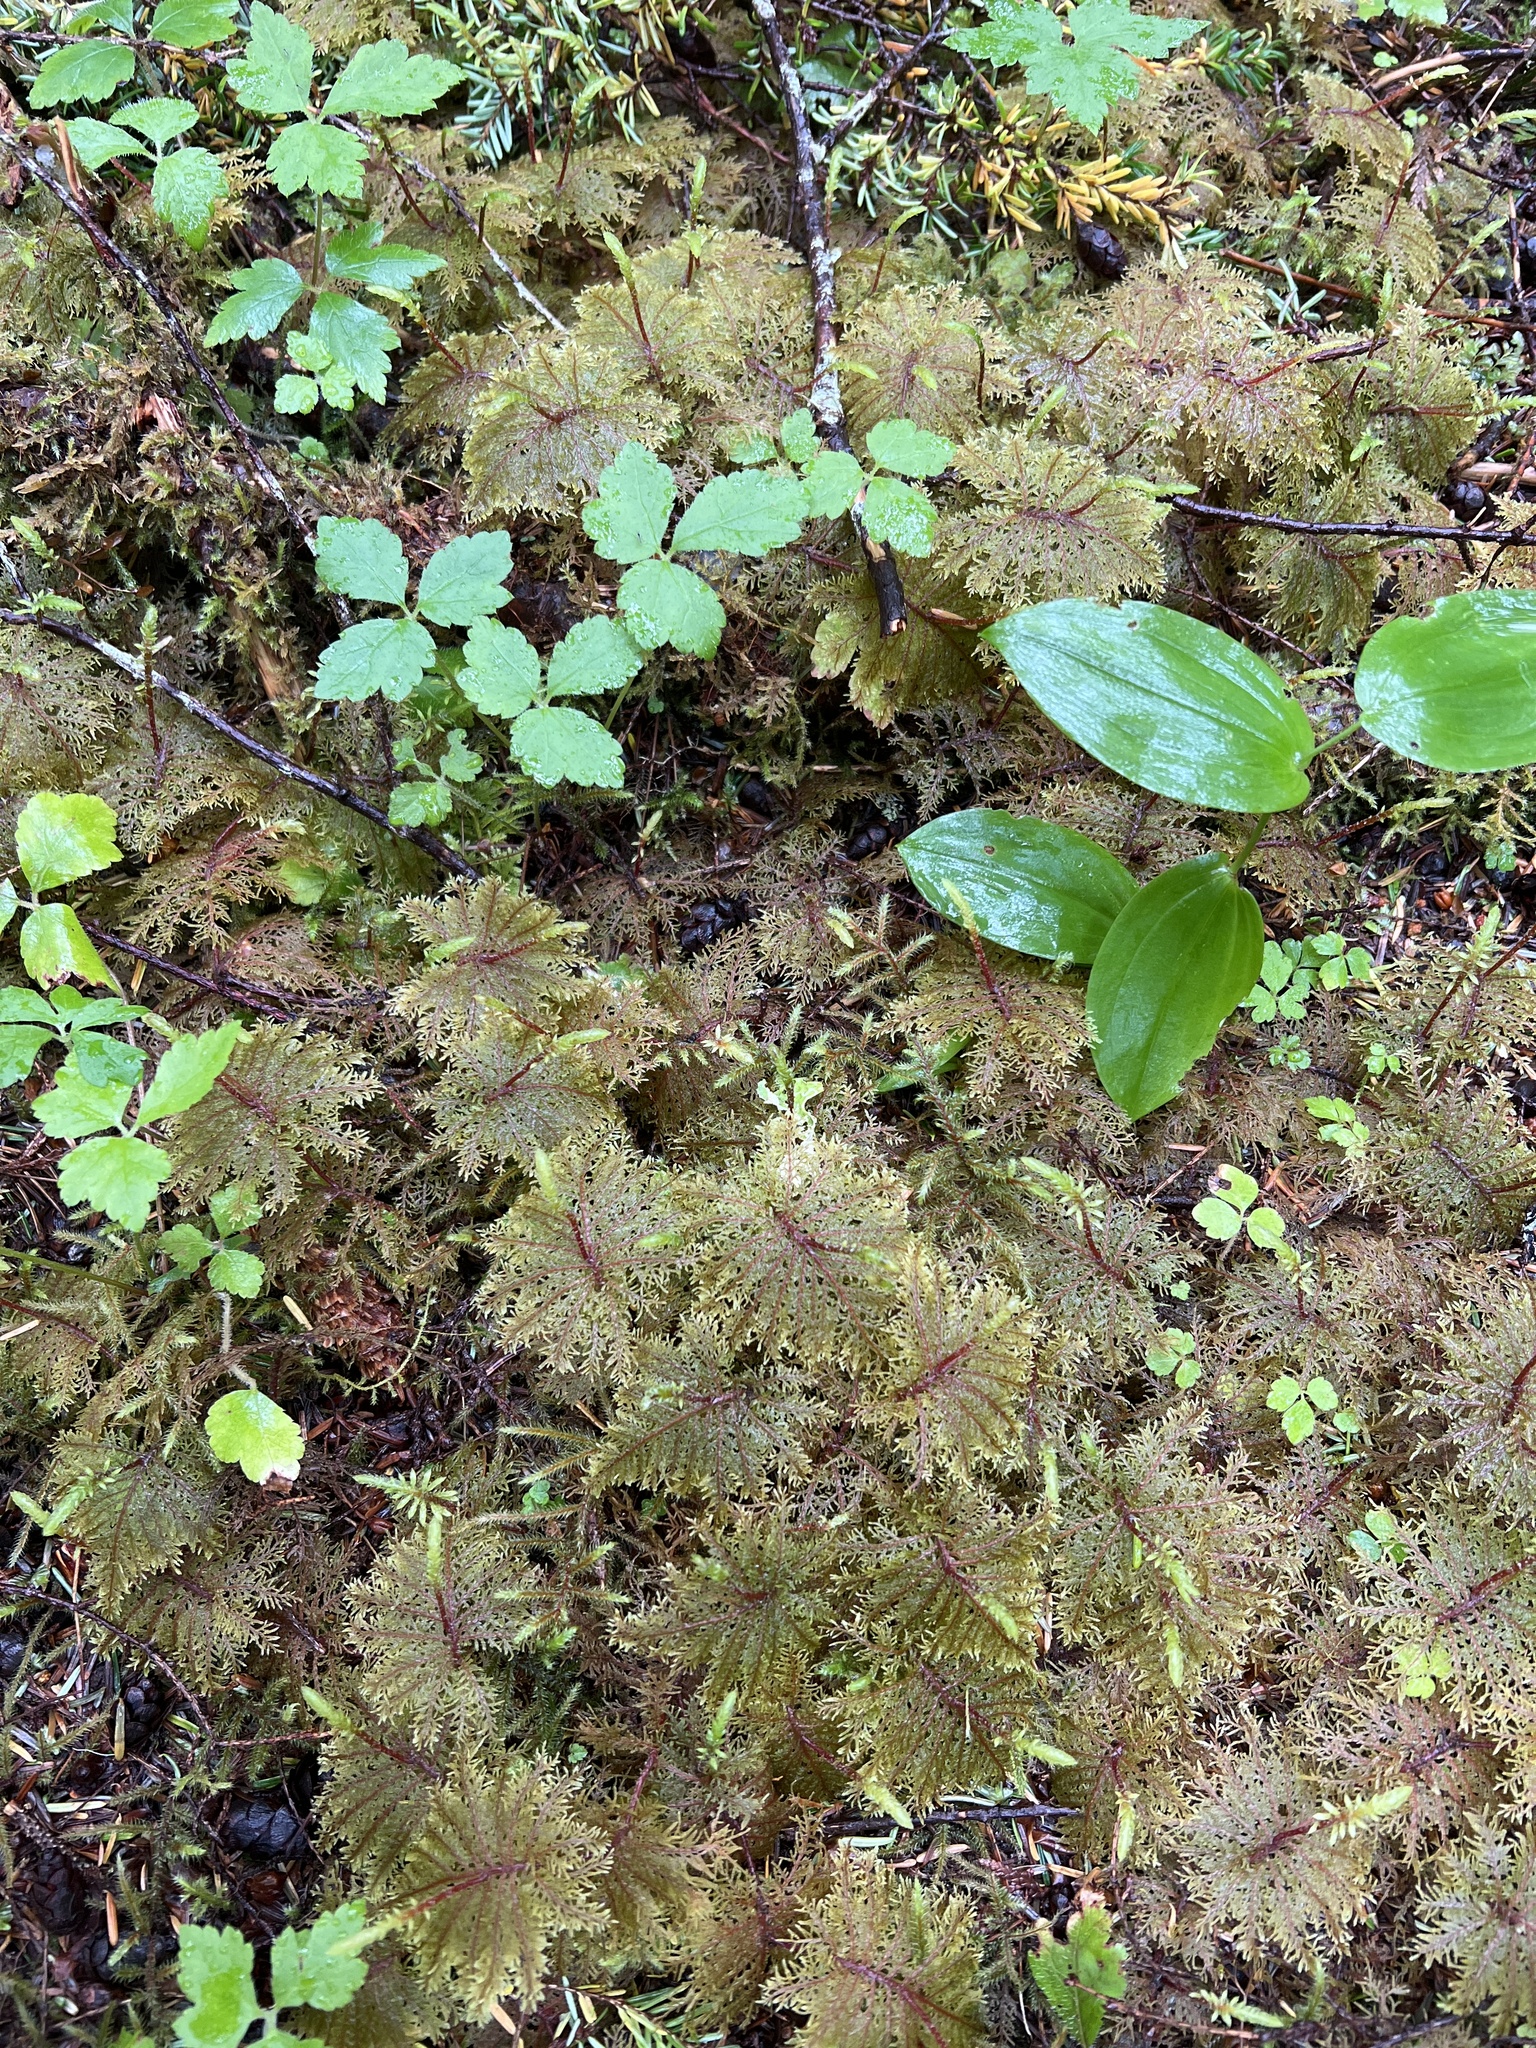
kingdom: Plantae
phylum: Bryophyta
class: Bryopsida
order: Hypnales
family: Hylocomiaceae
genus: Hylocomium
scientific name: Hylocomium splendens
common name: Stairstep moss
